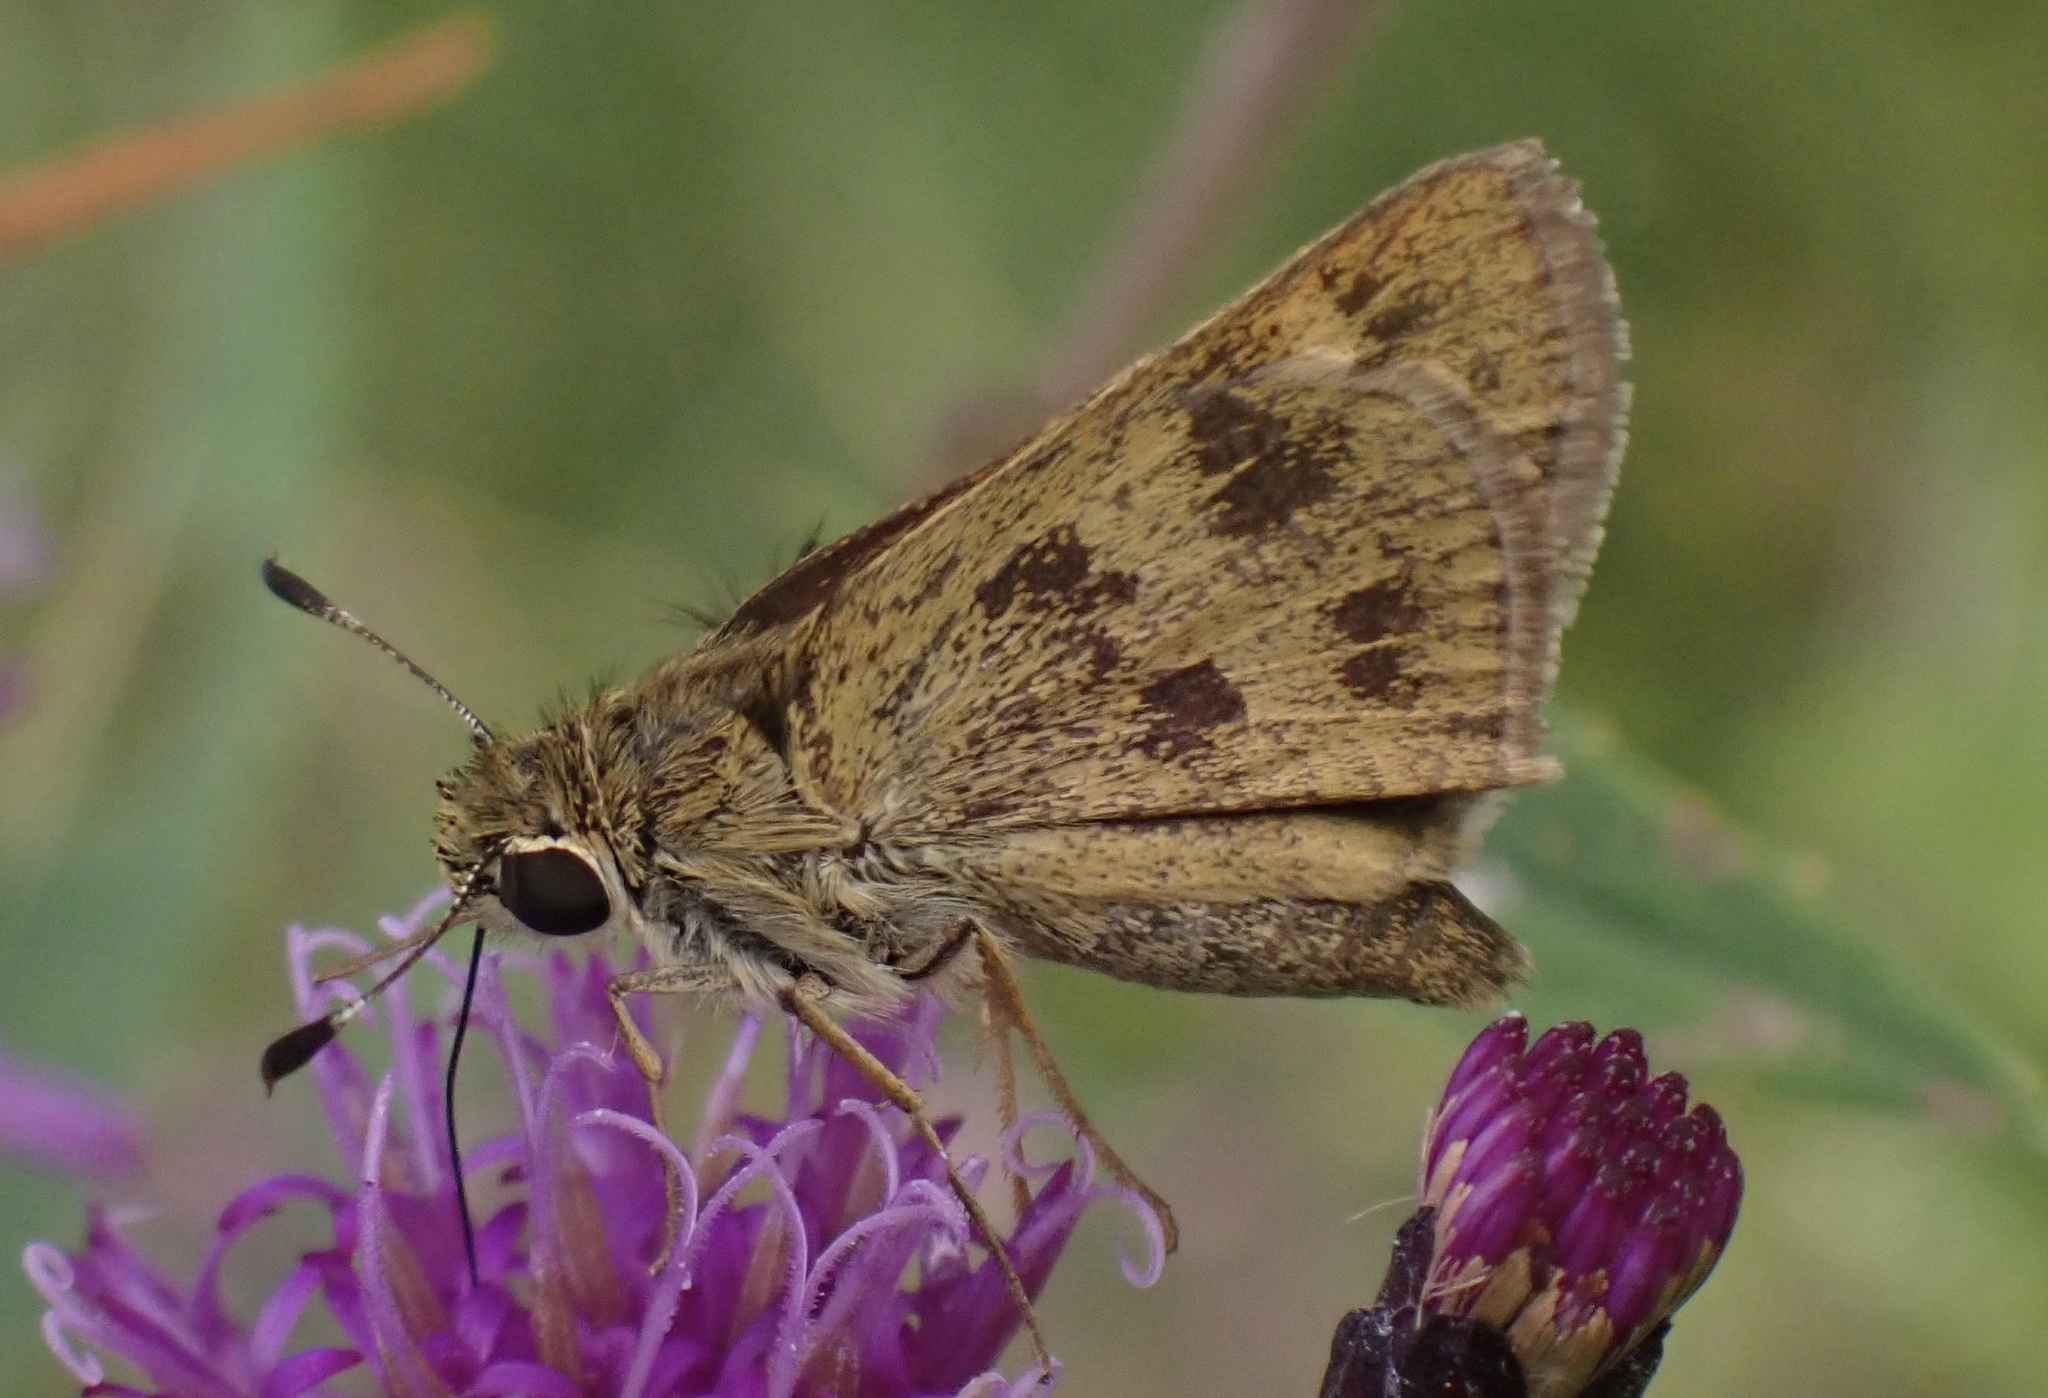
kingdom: Animalia
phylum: Arthropoda
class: Insecta
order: Lepidoptera
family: Hesperiidae
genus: Polites
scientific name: Polites vibex
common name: Whirlabout
